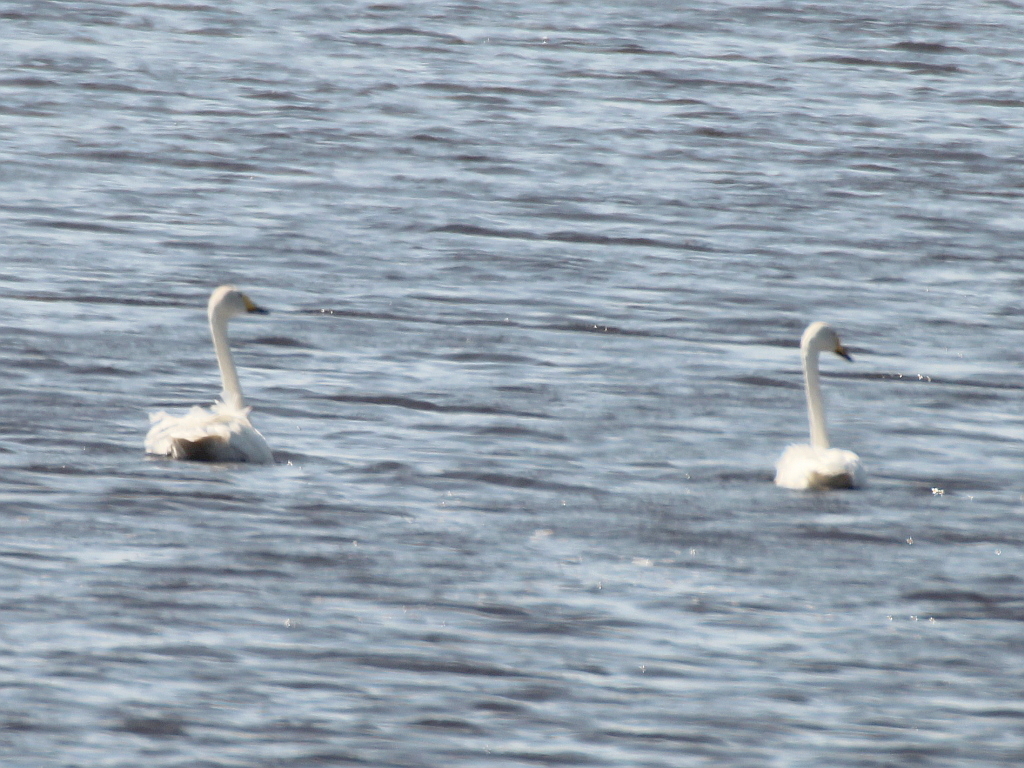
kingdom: Animalia
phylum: Chordata
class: Aves
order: Anseriformes
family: Anatidae
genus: Cygnus
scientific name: Cygnus cygnus
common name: Whooper swan
